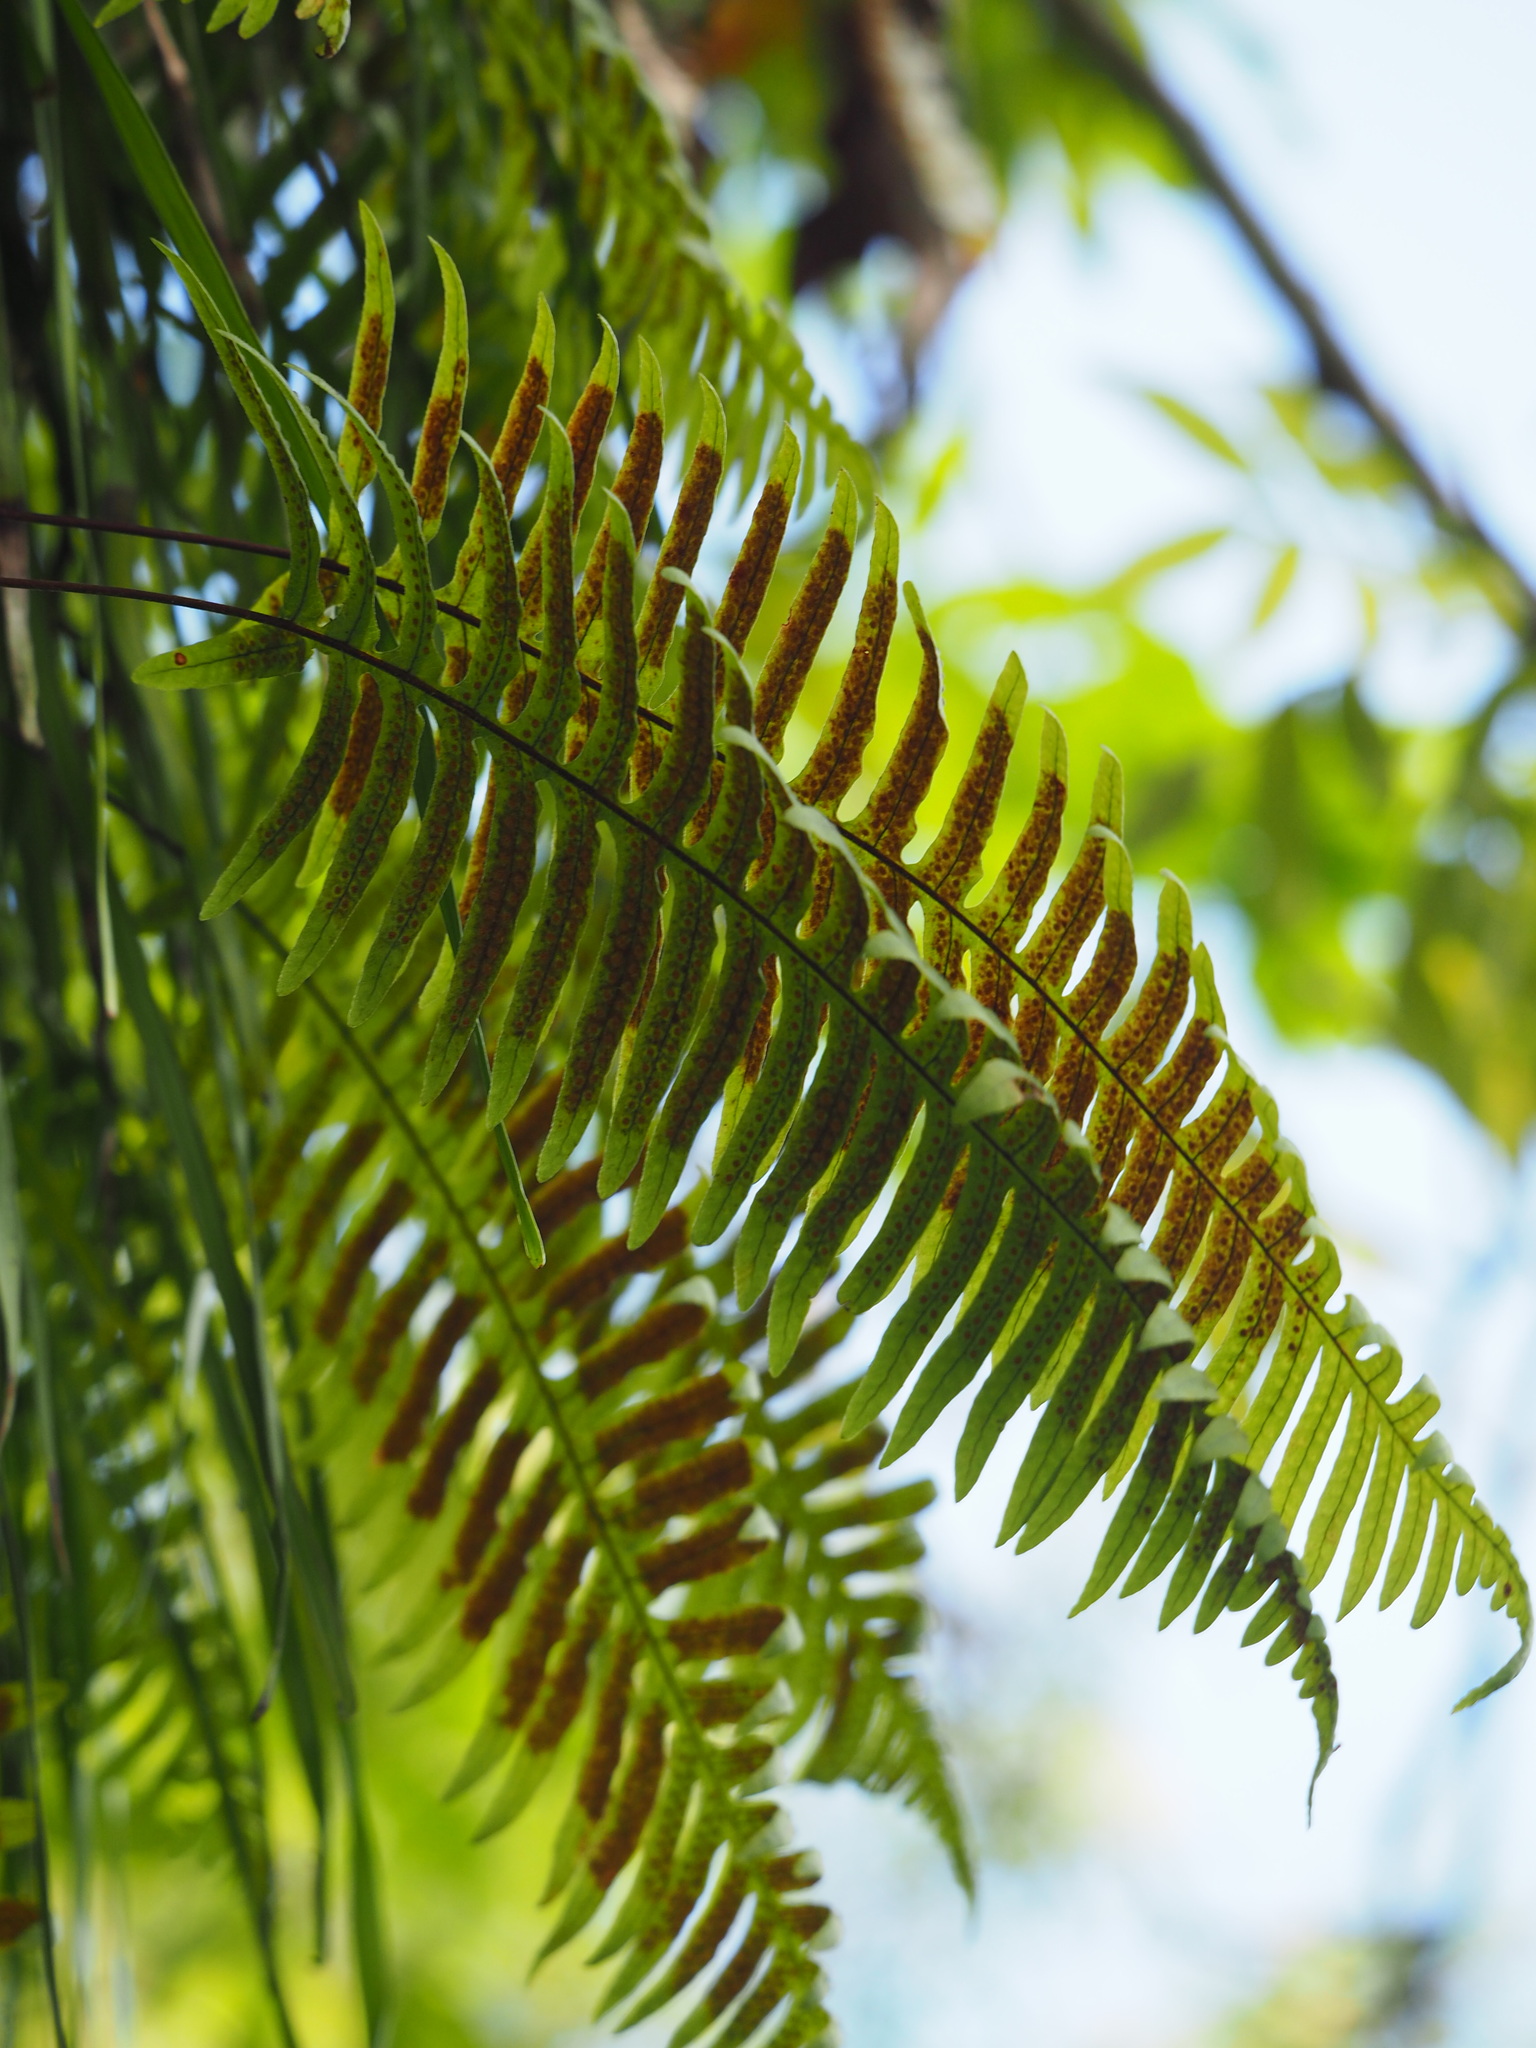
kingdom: Plantae
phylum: Tracheophyta
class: Polypodiopsida
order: Polypodiales
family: Polypodiaceae
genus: Goniophlebium
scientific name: Goniophlebium formosanum
